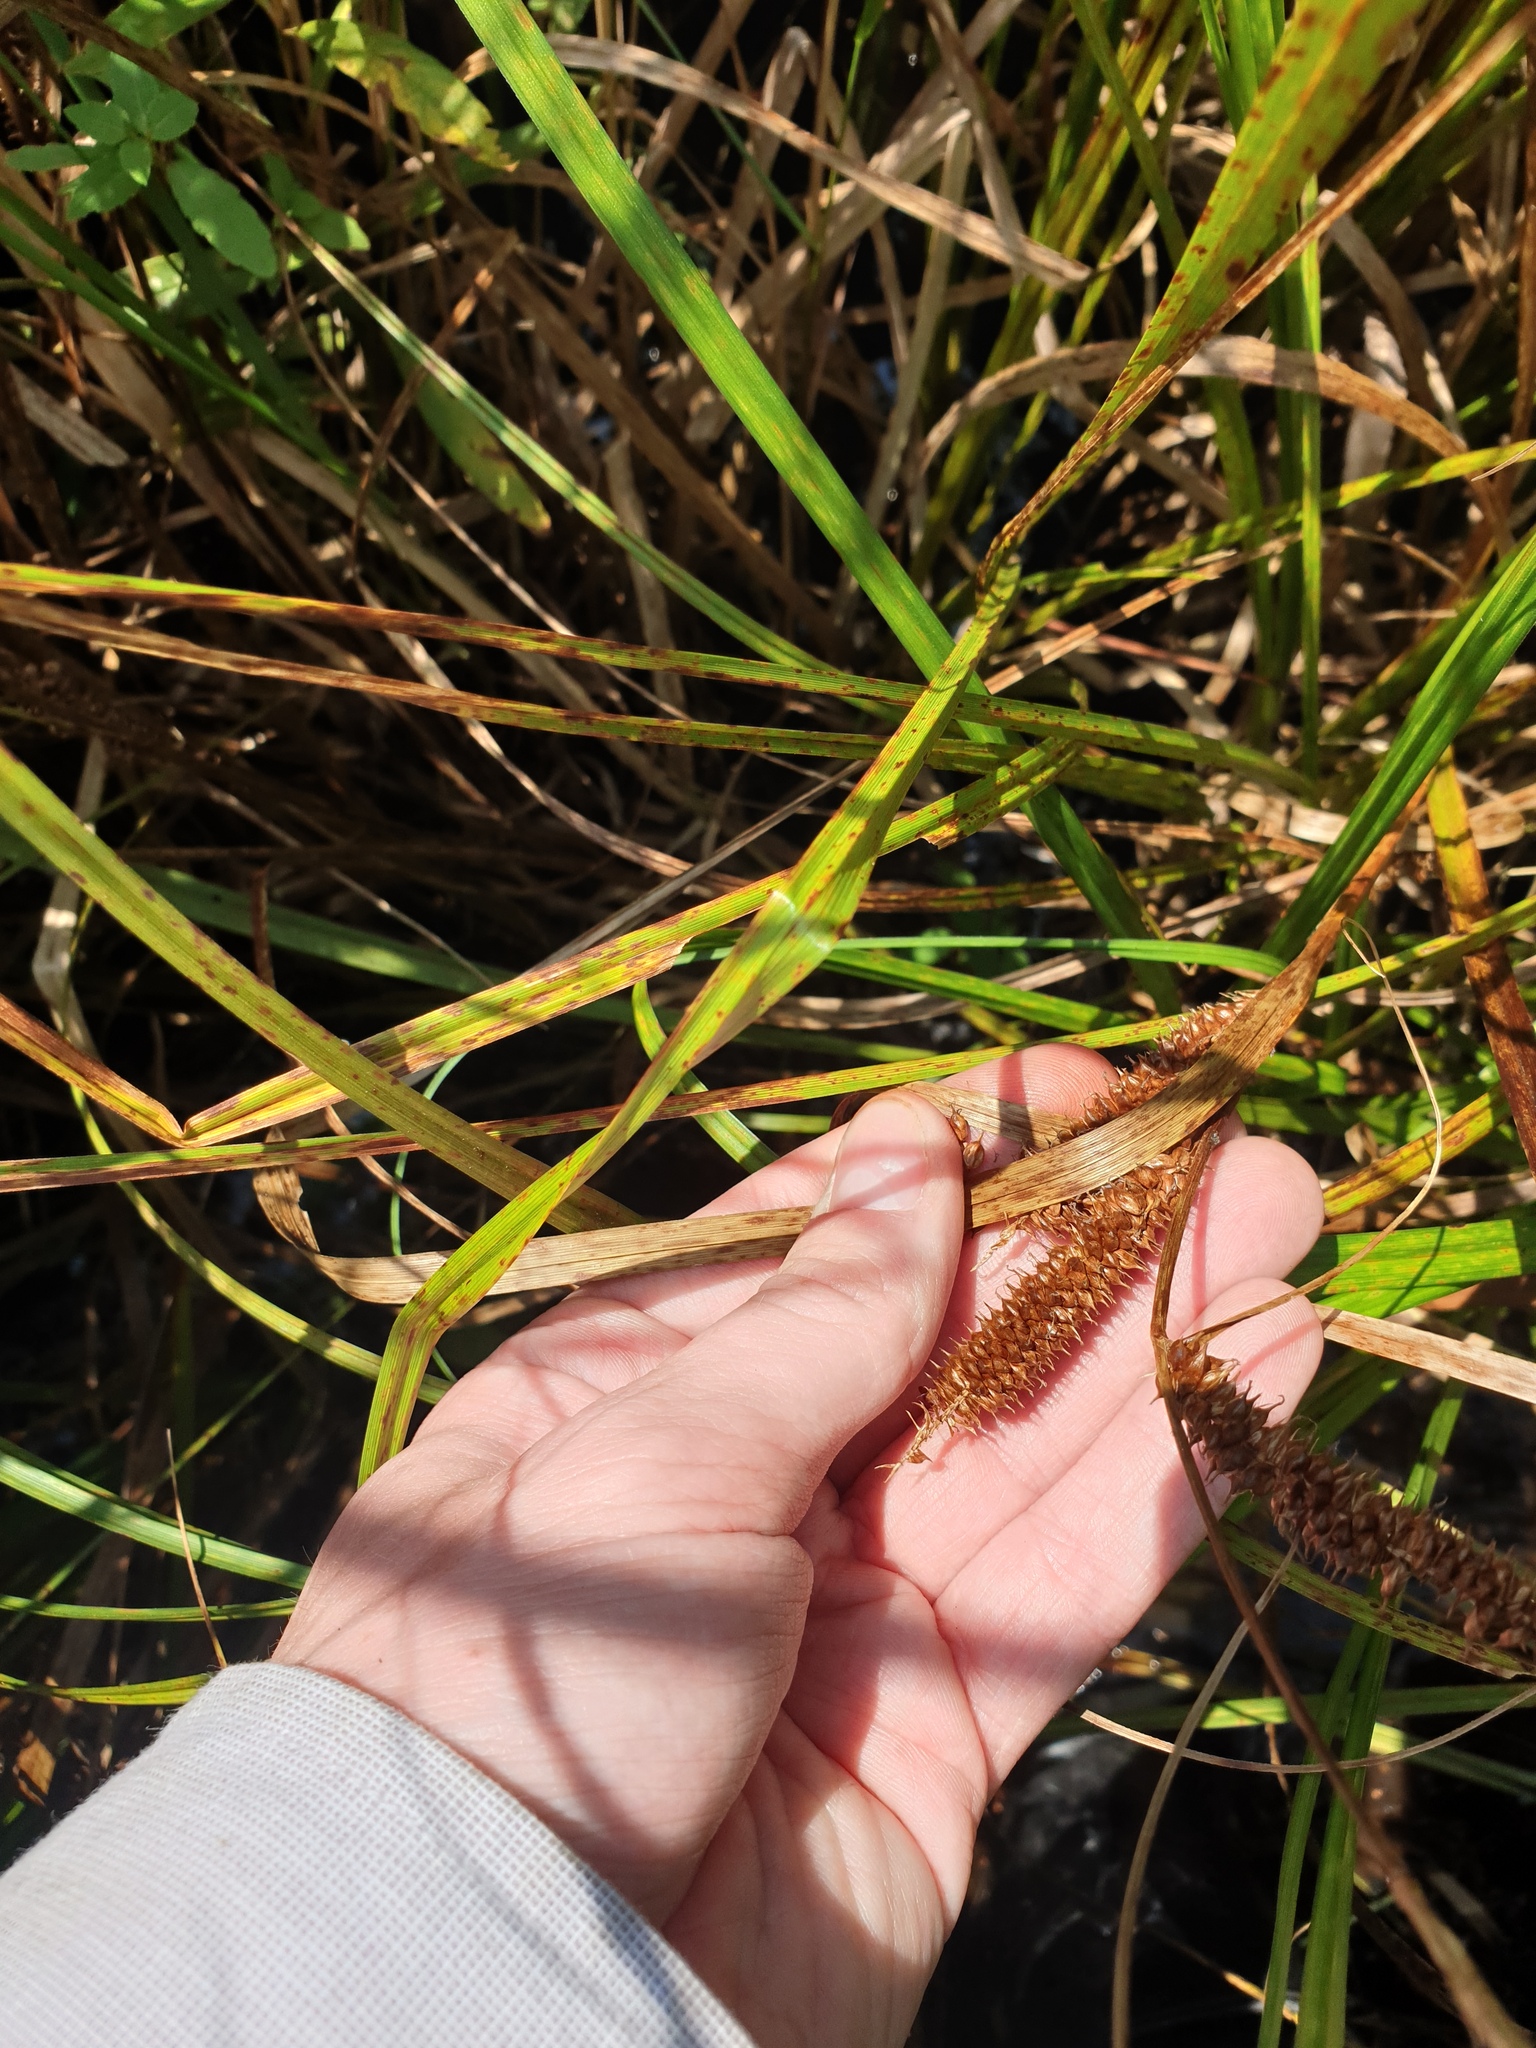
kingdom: Plantae
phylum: Tracheophyta
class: Liliopsida
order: Poales
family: Cyperaceae
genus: Carex
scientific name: Carex utriculata
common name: Beaked sedge
